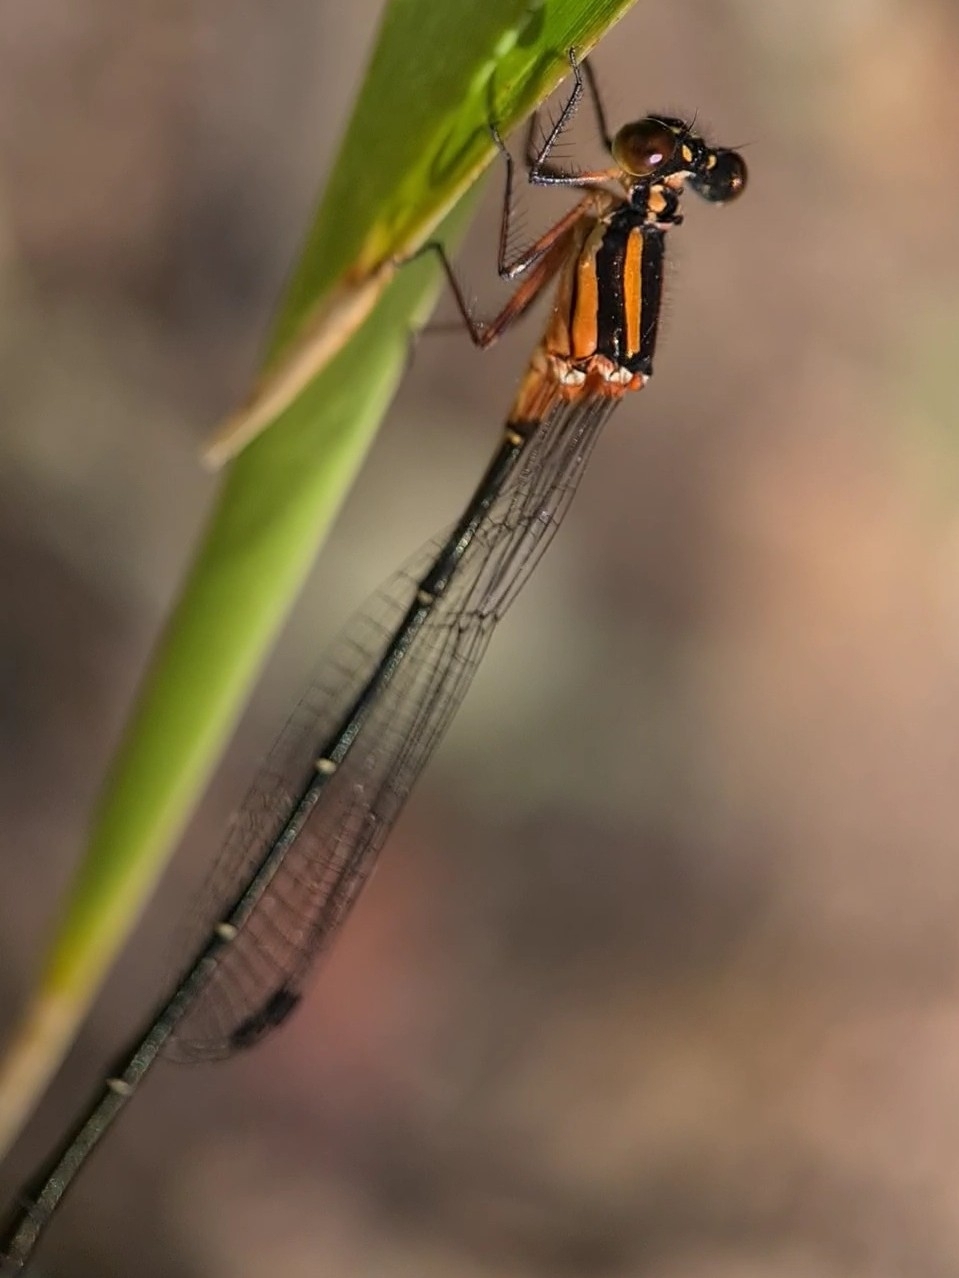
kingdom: Animalia
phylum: Arthropoda
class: Insecta
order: Odonata
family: Platycnemididae
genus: Nososticta
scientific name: Nososticta solida
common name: Orange threadtail
